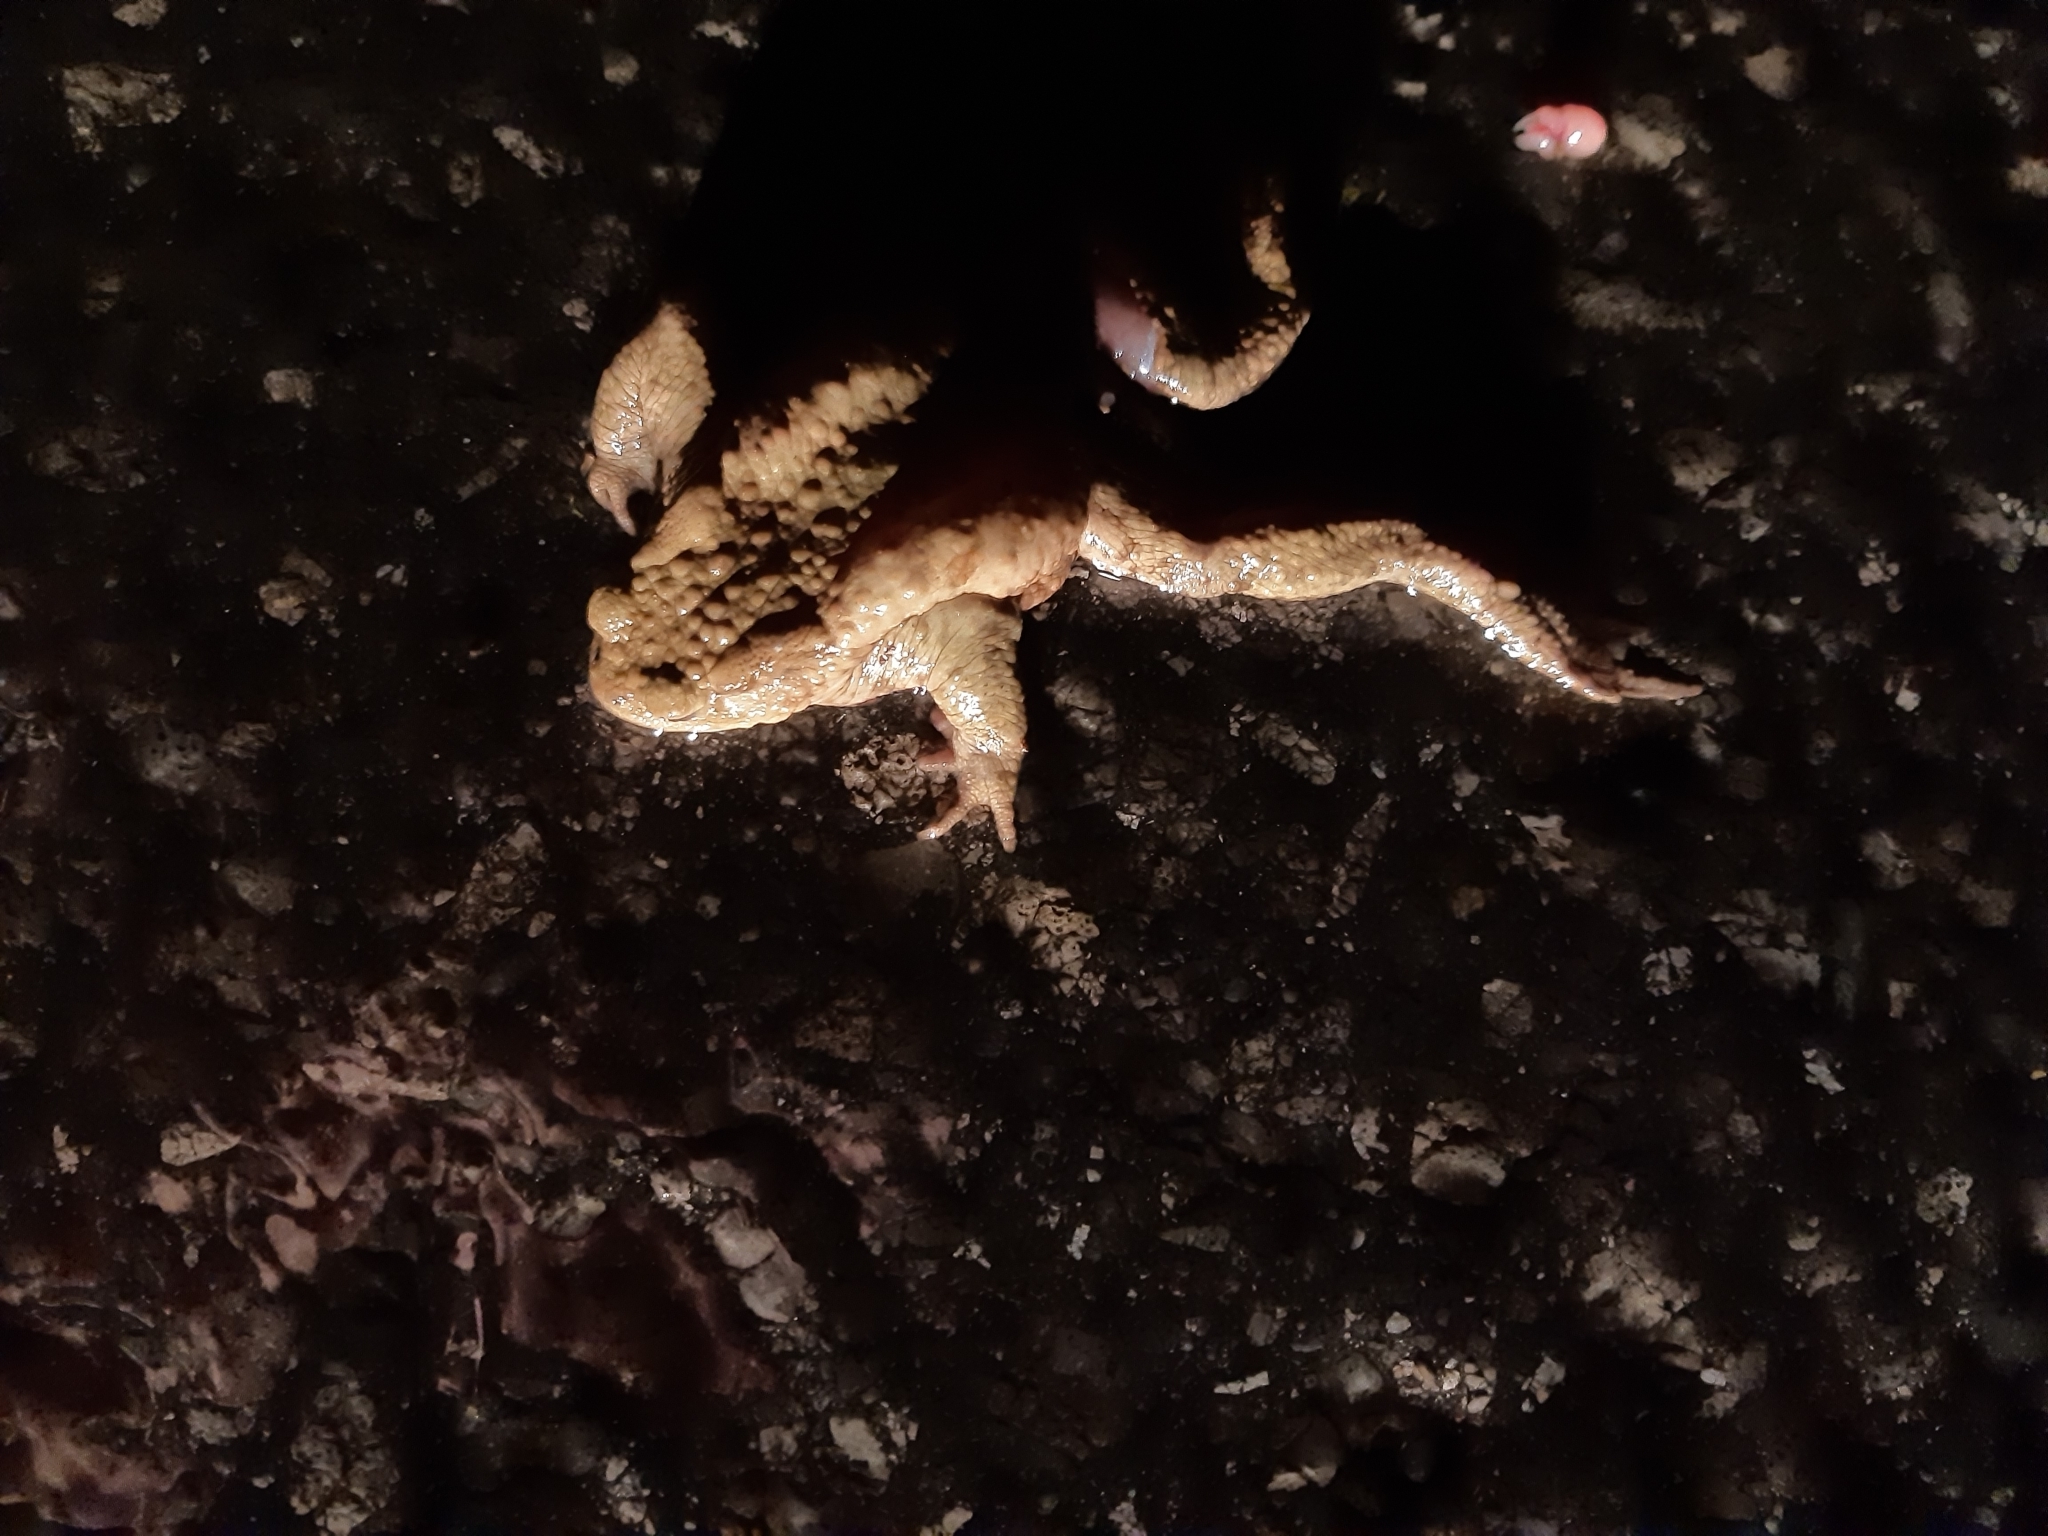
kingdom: Animalia
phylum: Chordata
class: Amphibia
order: Anura
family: Bufonidae
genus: Bufo
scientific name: Bufo bufo
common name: Common toad
